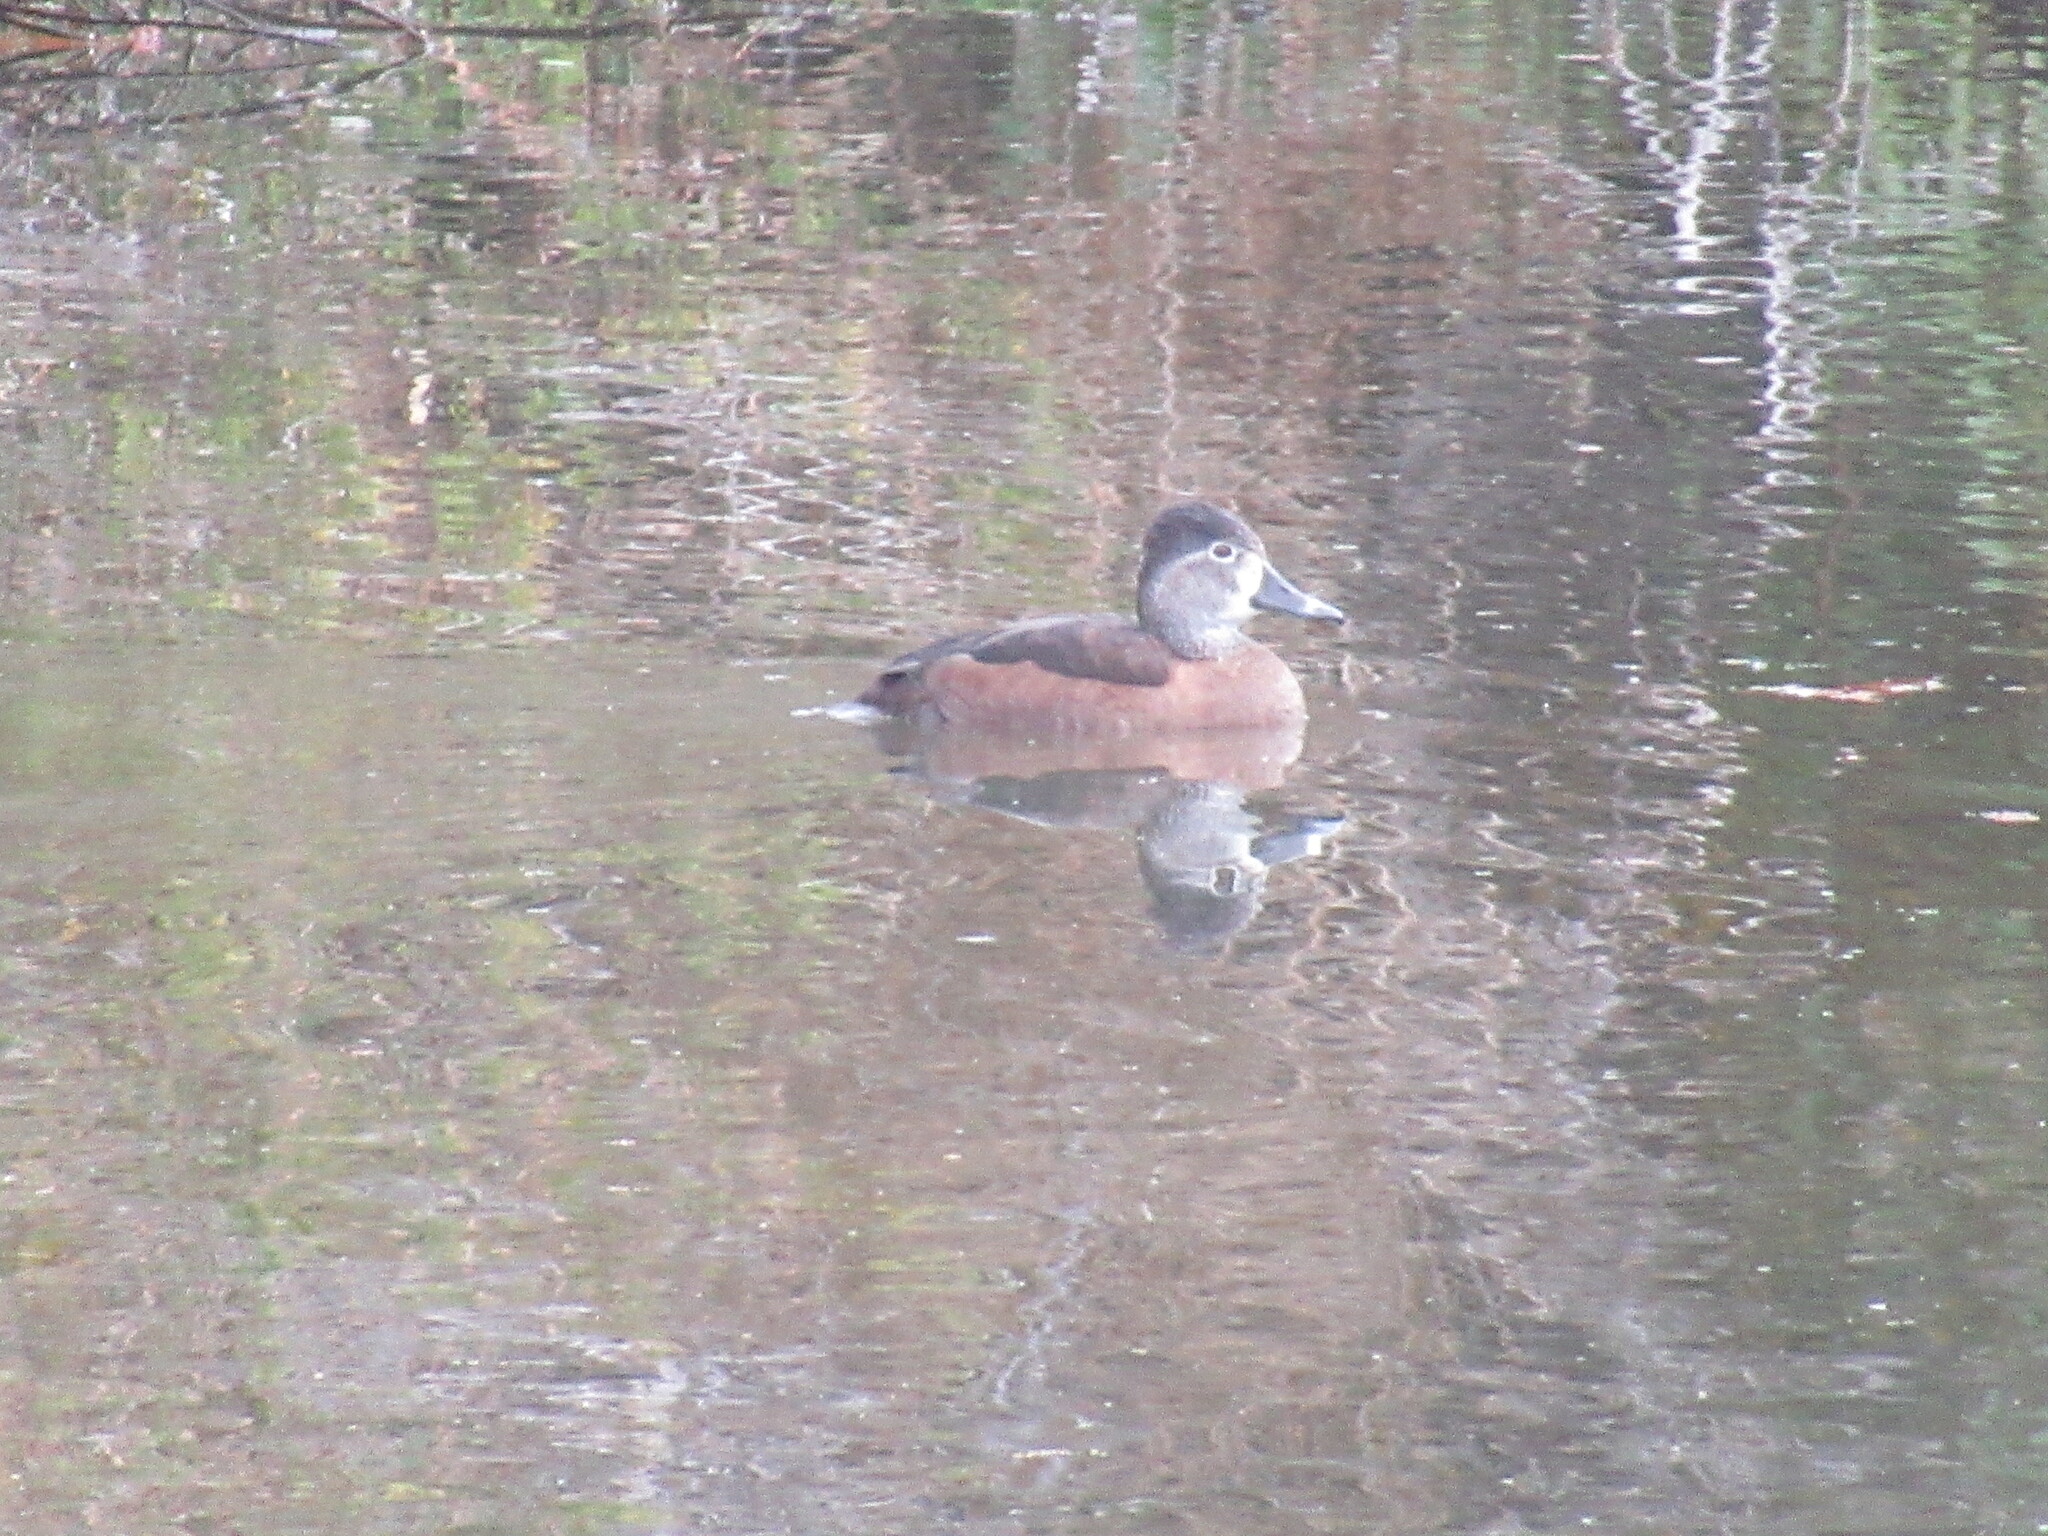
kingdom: Animalia
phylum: Chordata
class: Aves
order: Anseriformes
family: Anatidae
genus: Aythya
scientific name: Aythya collaris
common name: Ring-necked duck
